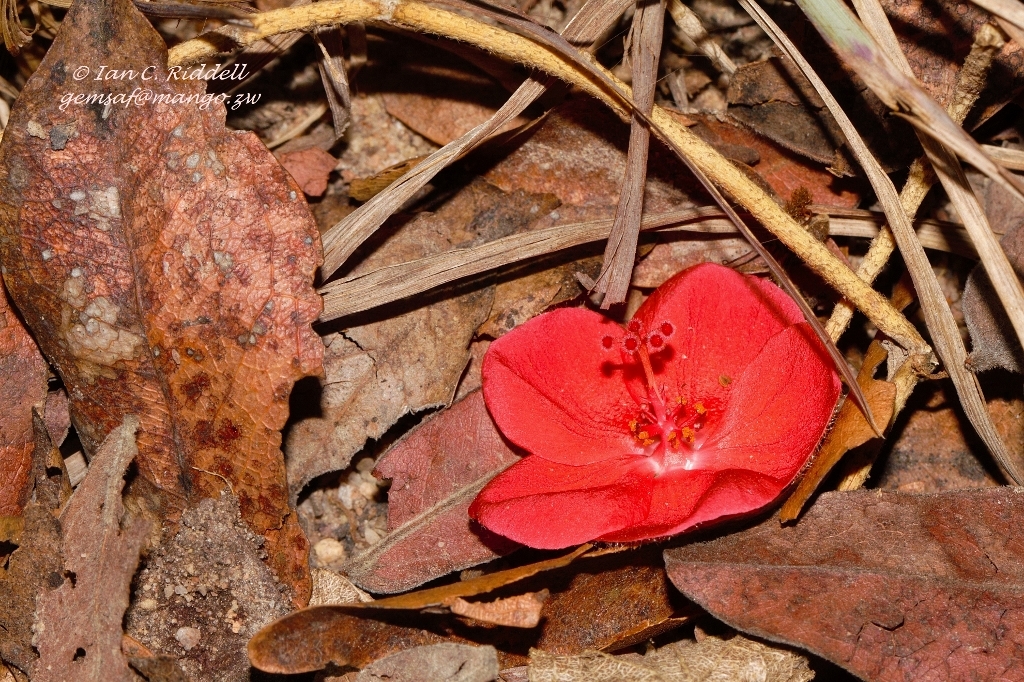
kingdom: Plantae
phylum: Tracheophyta
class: Magnoliopsida
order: Malvales
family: Malvaceae
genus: Hibiscus
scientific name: Hibiscus rhodanthus
